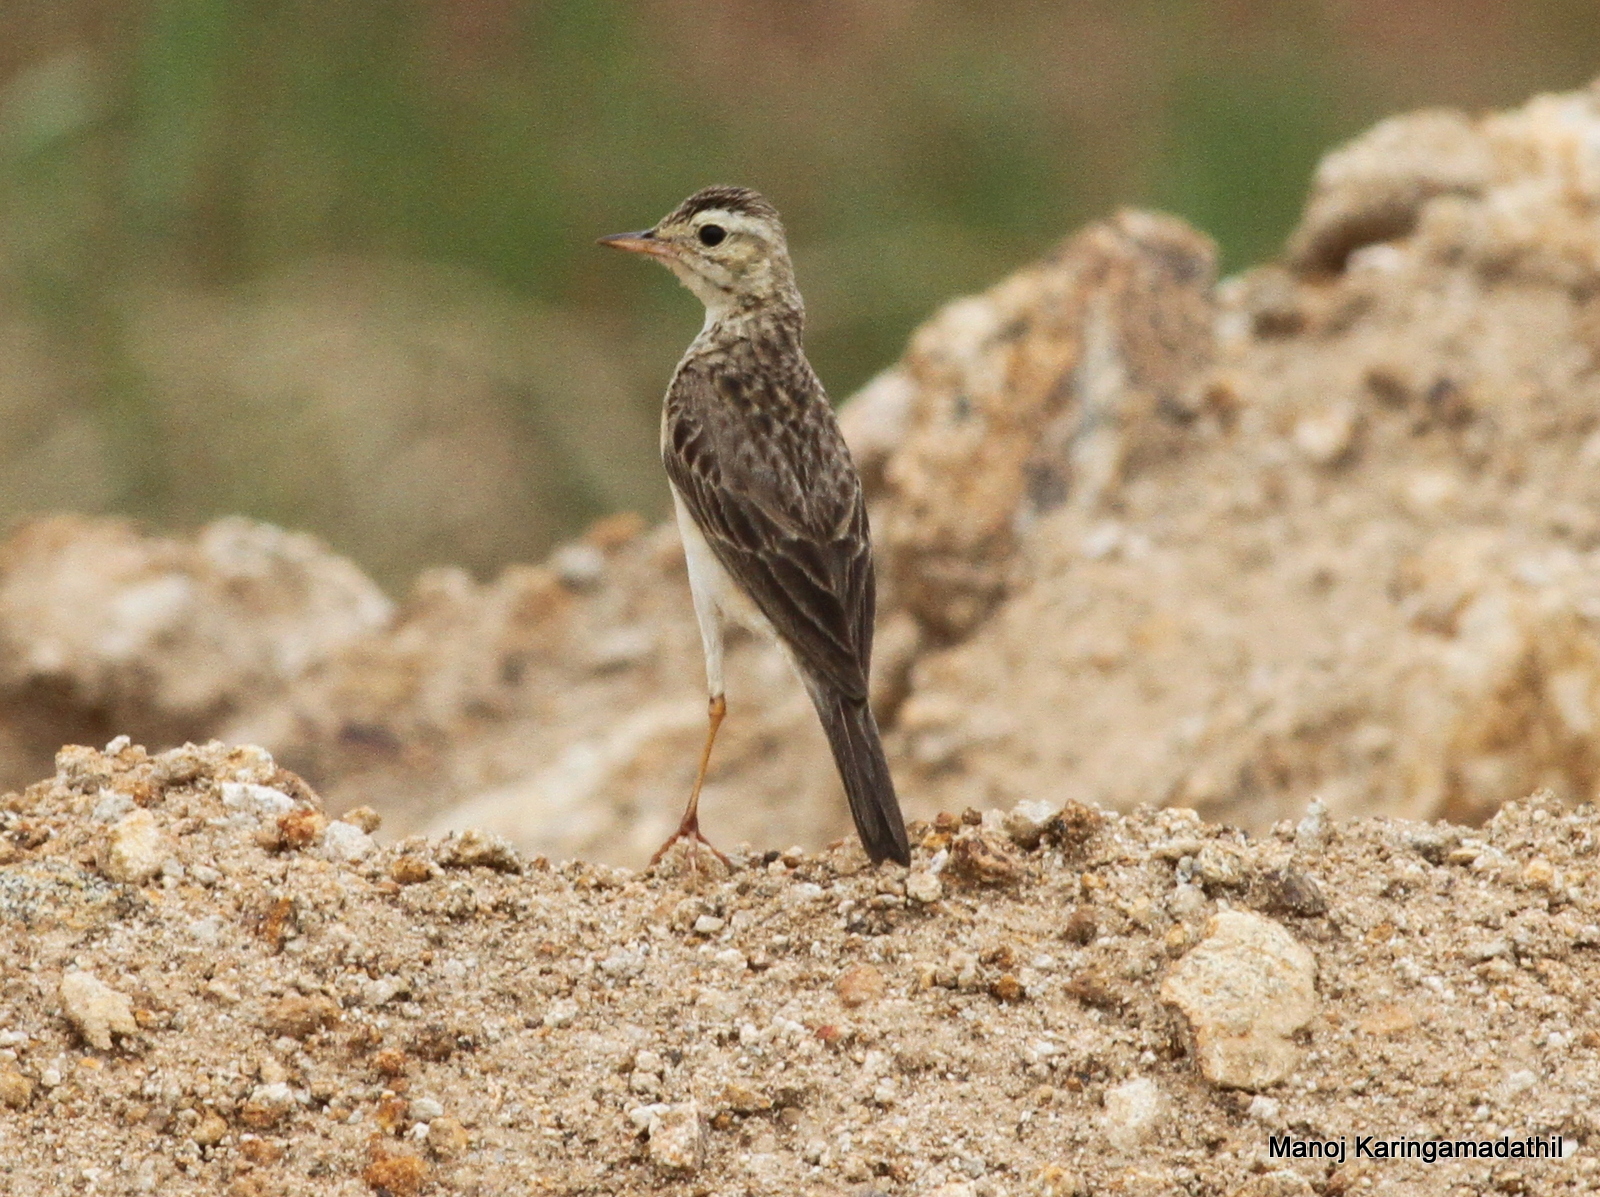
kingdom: Animalia
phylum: Chordata
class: Aves
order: Passeriformes
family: Motacillidae
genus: Anthus
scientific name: Anthus rufulus
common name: Paddyfield pipit
